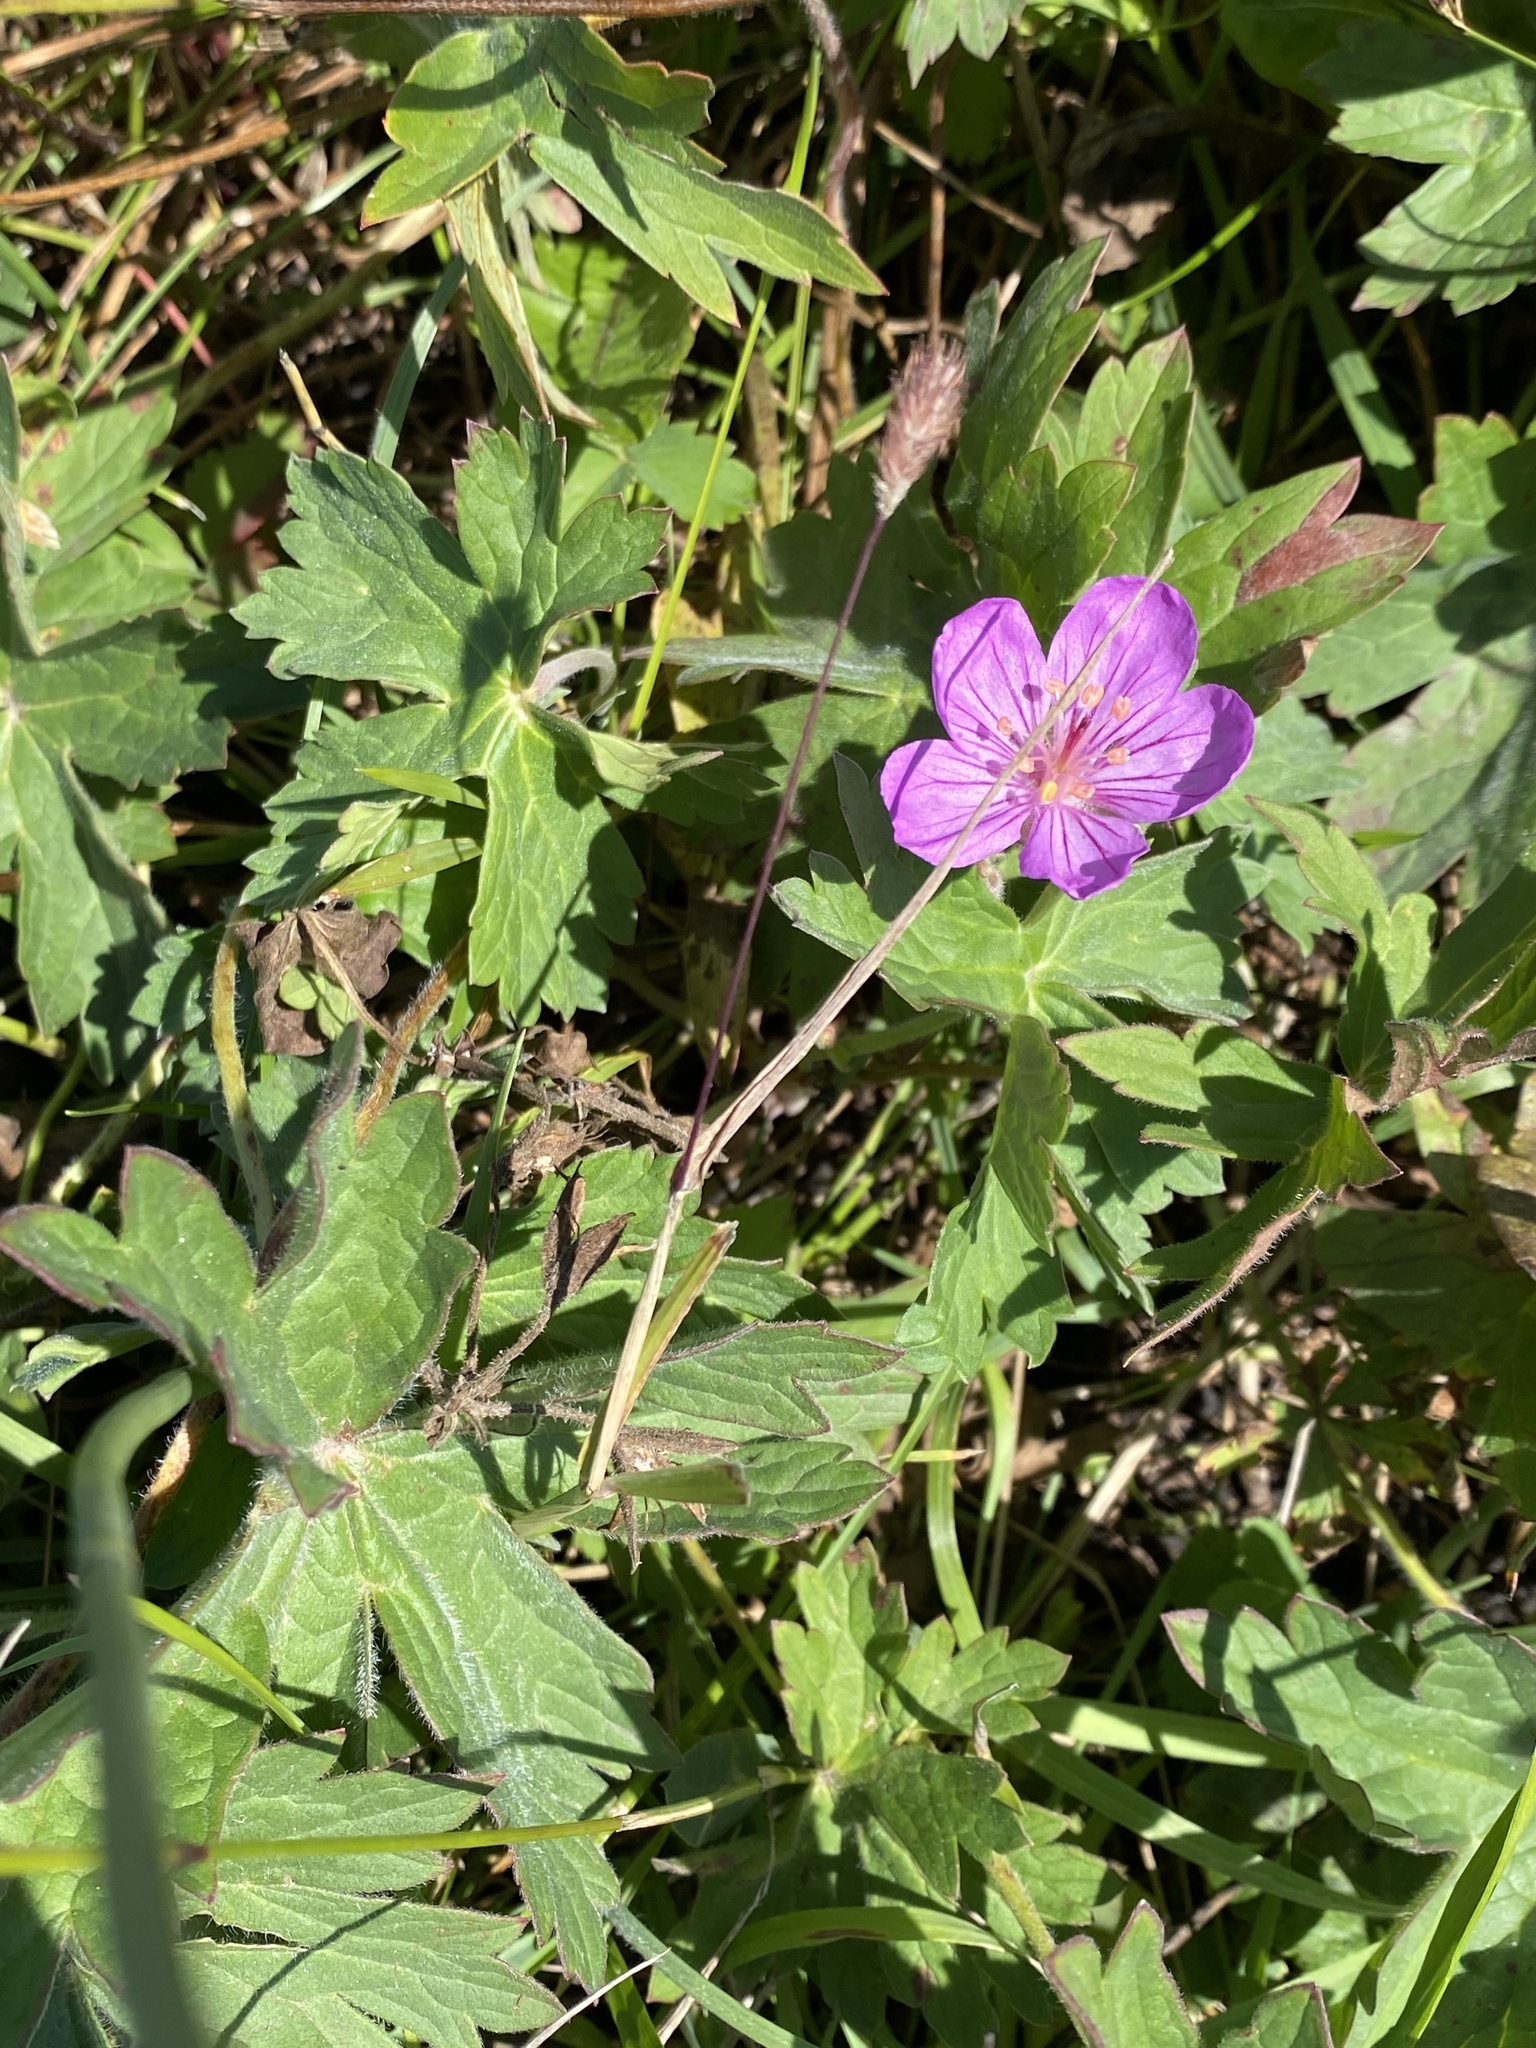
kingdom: Plantae
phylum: Tracheophyta
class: Magnoliopsida
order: Geraniales
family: Geraniaceae
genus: Geranium
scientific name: Geranium viscosissimum
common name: Purple geranium
